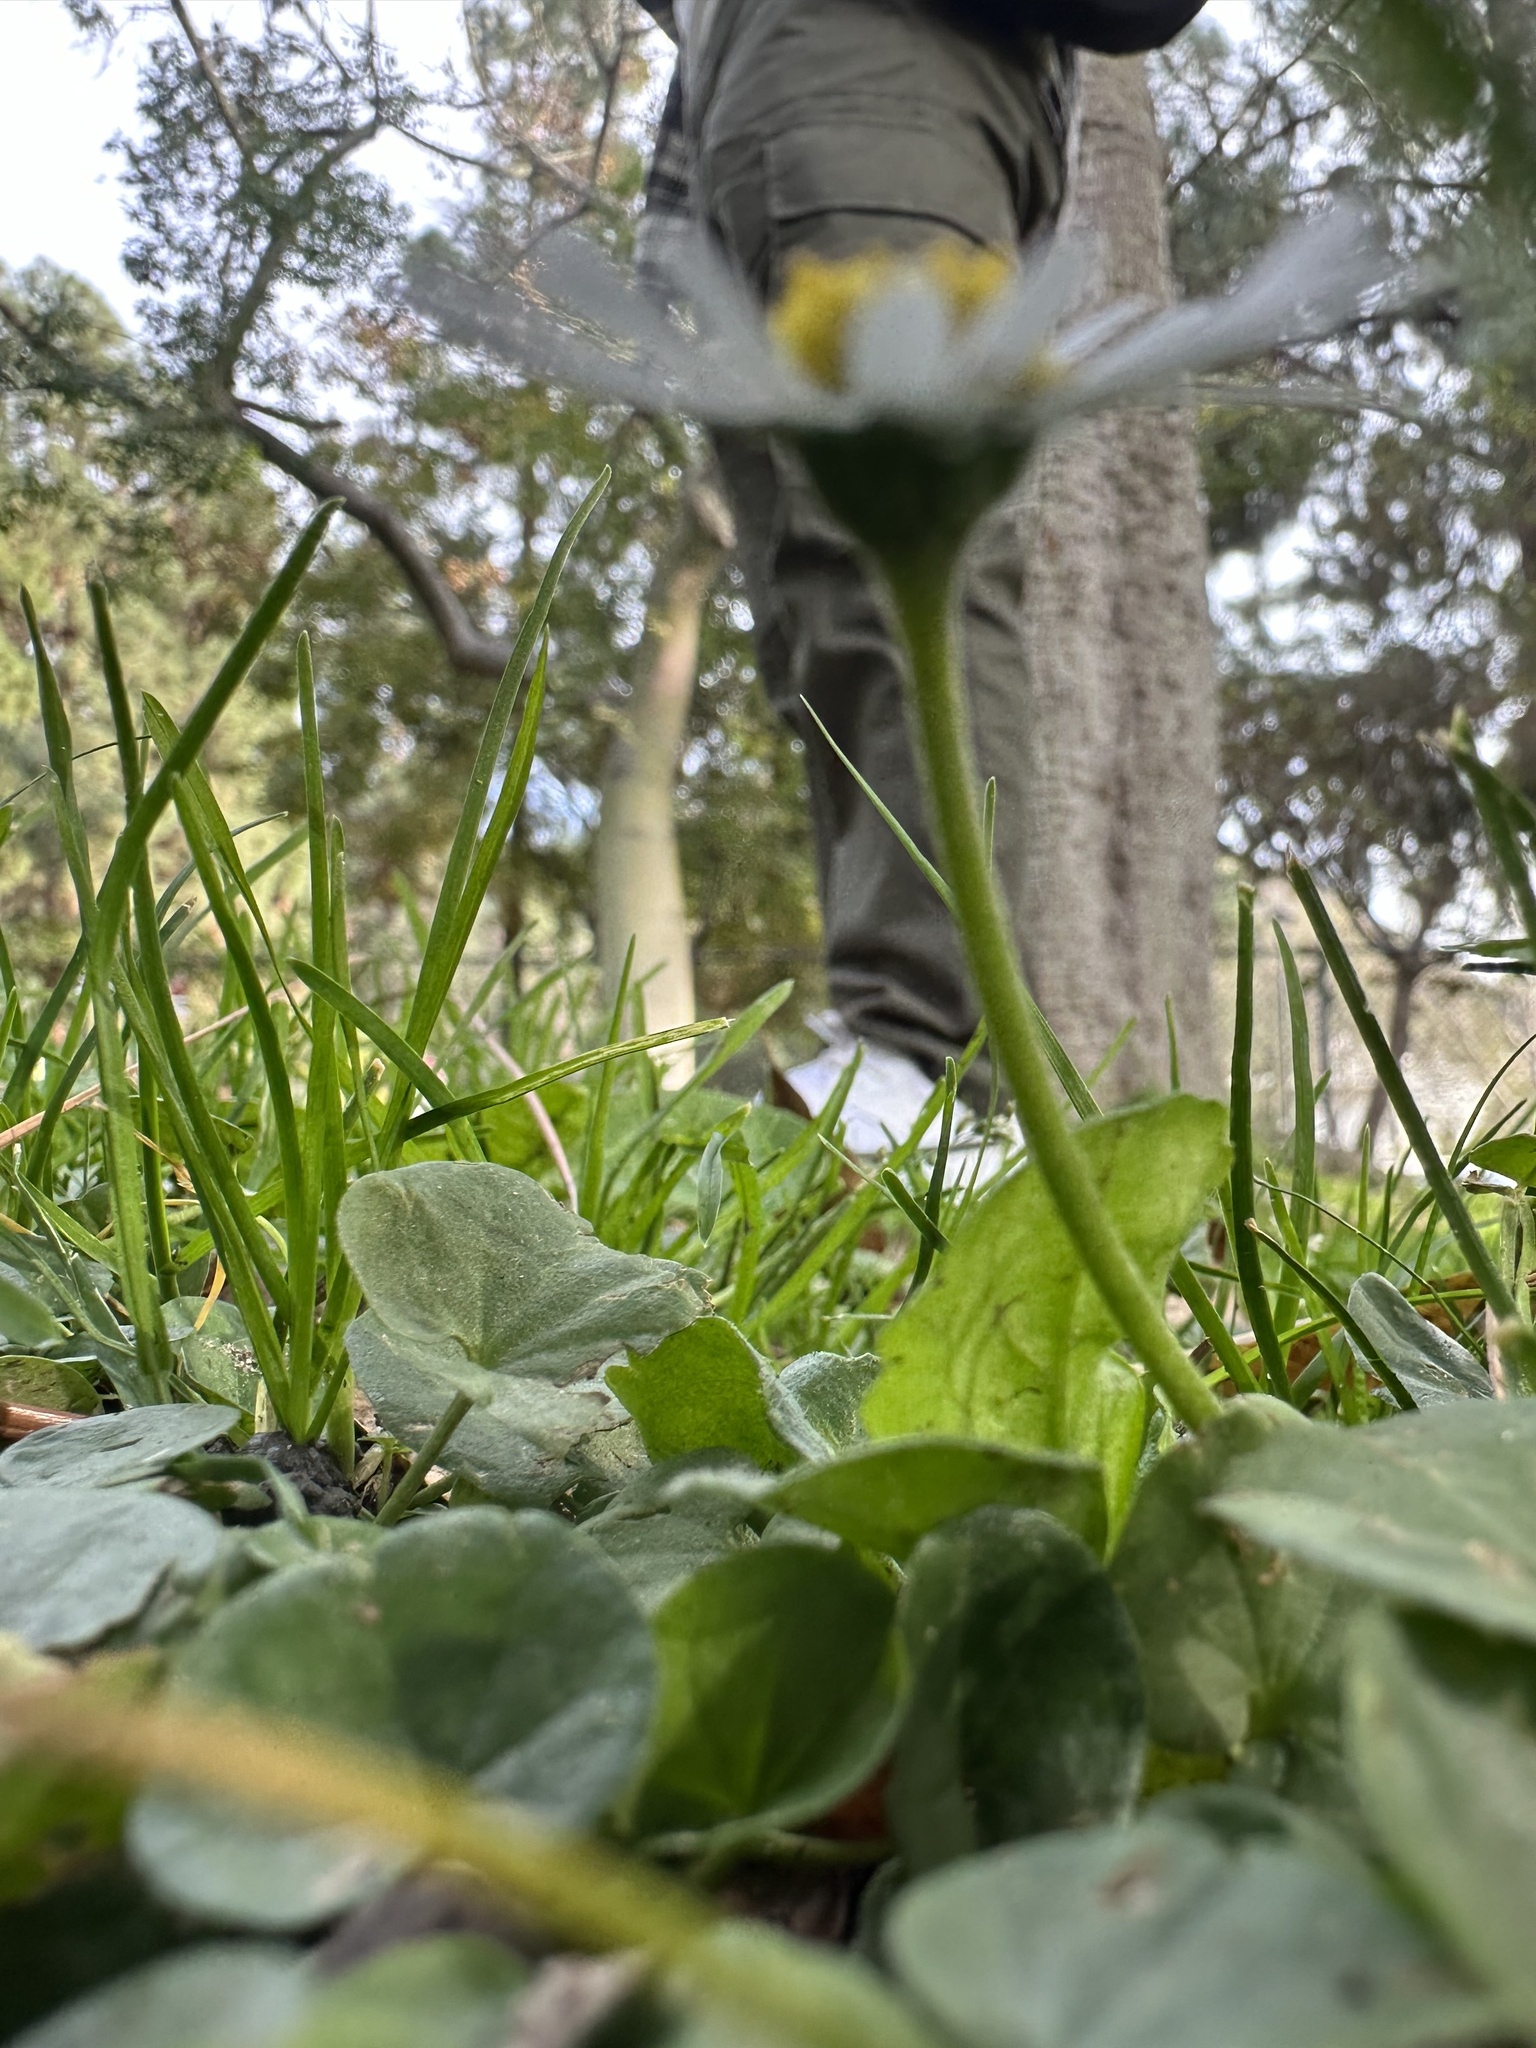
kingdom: Plantae
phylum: Tracheophyta
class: Magnoliopsida
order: Asterales
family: Asteraceae
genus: Bellis
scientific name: Bellis perennis
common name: Lawndaisy
